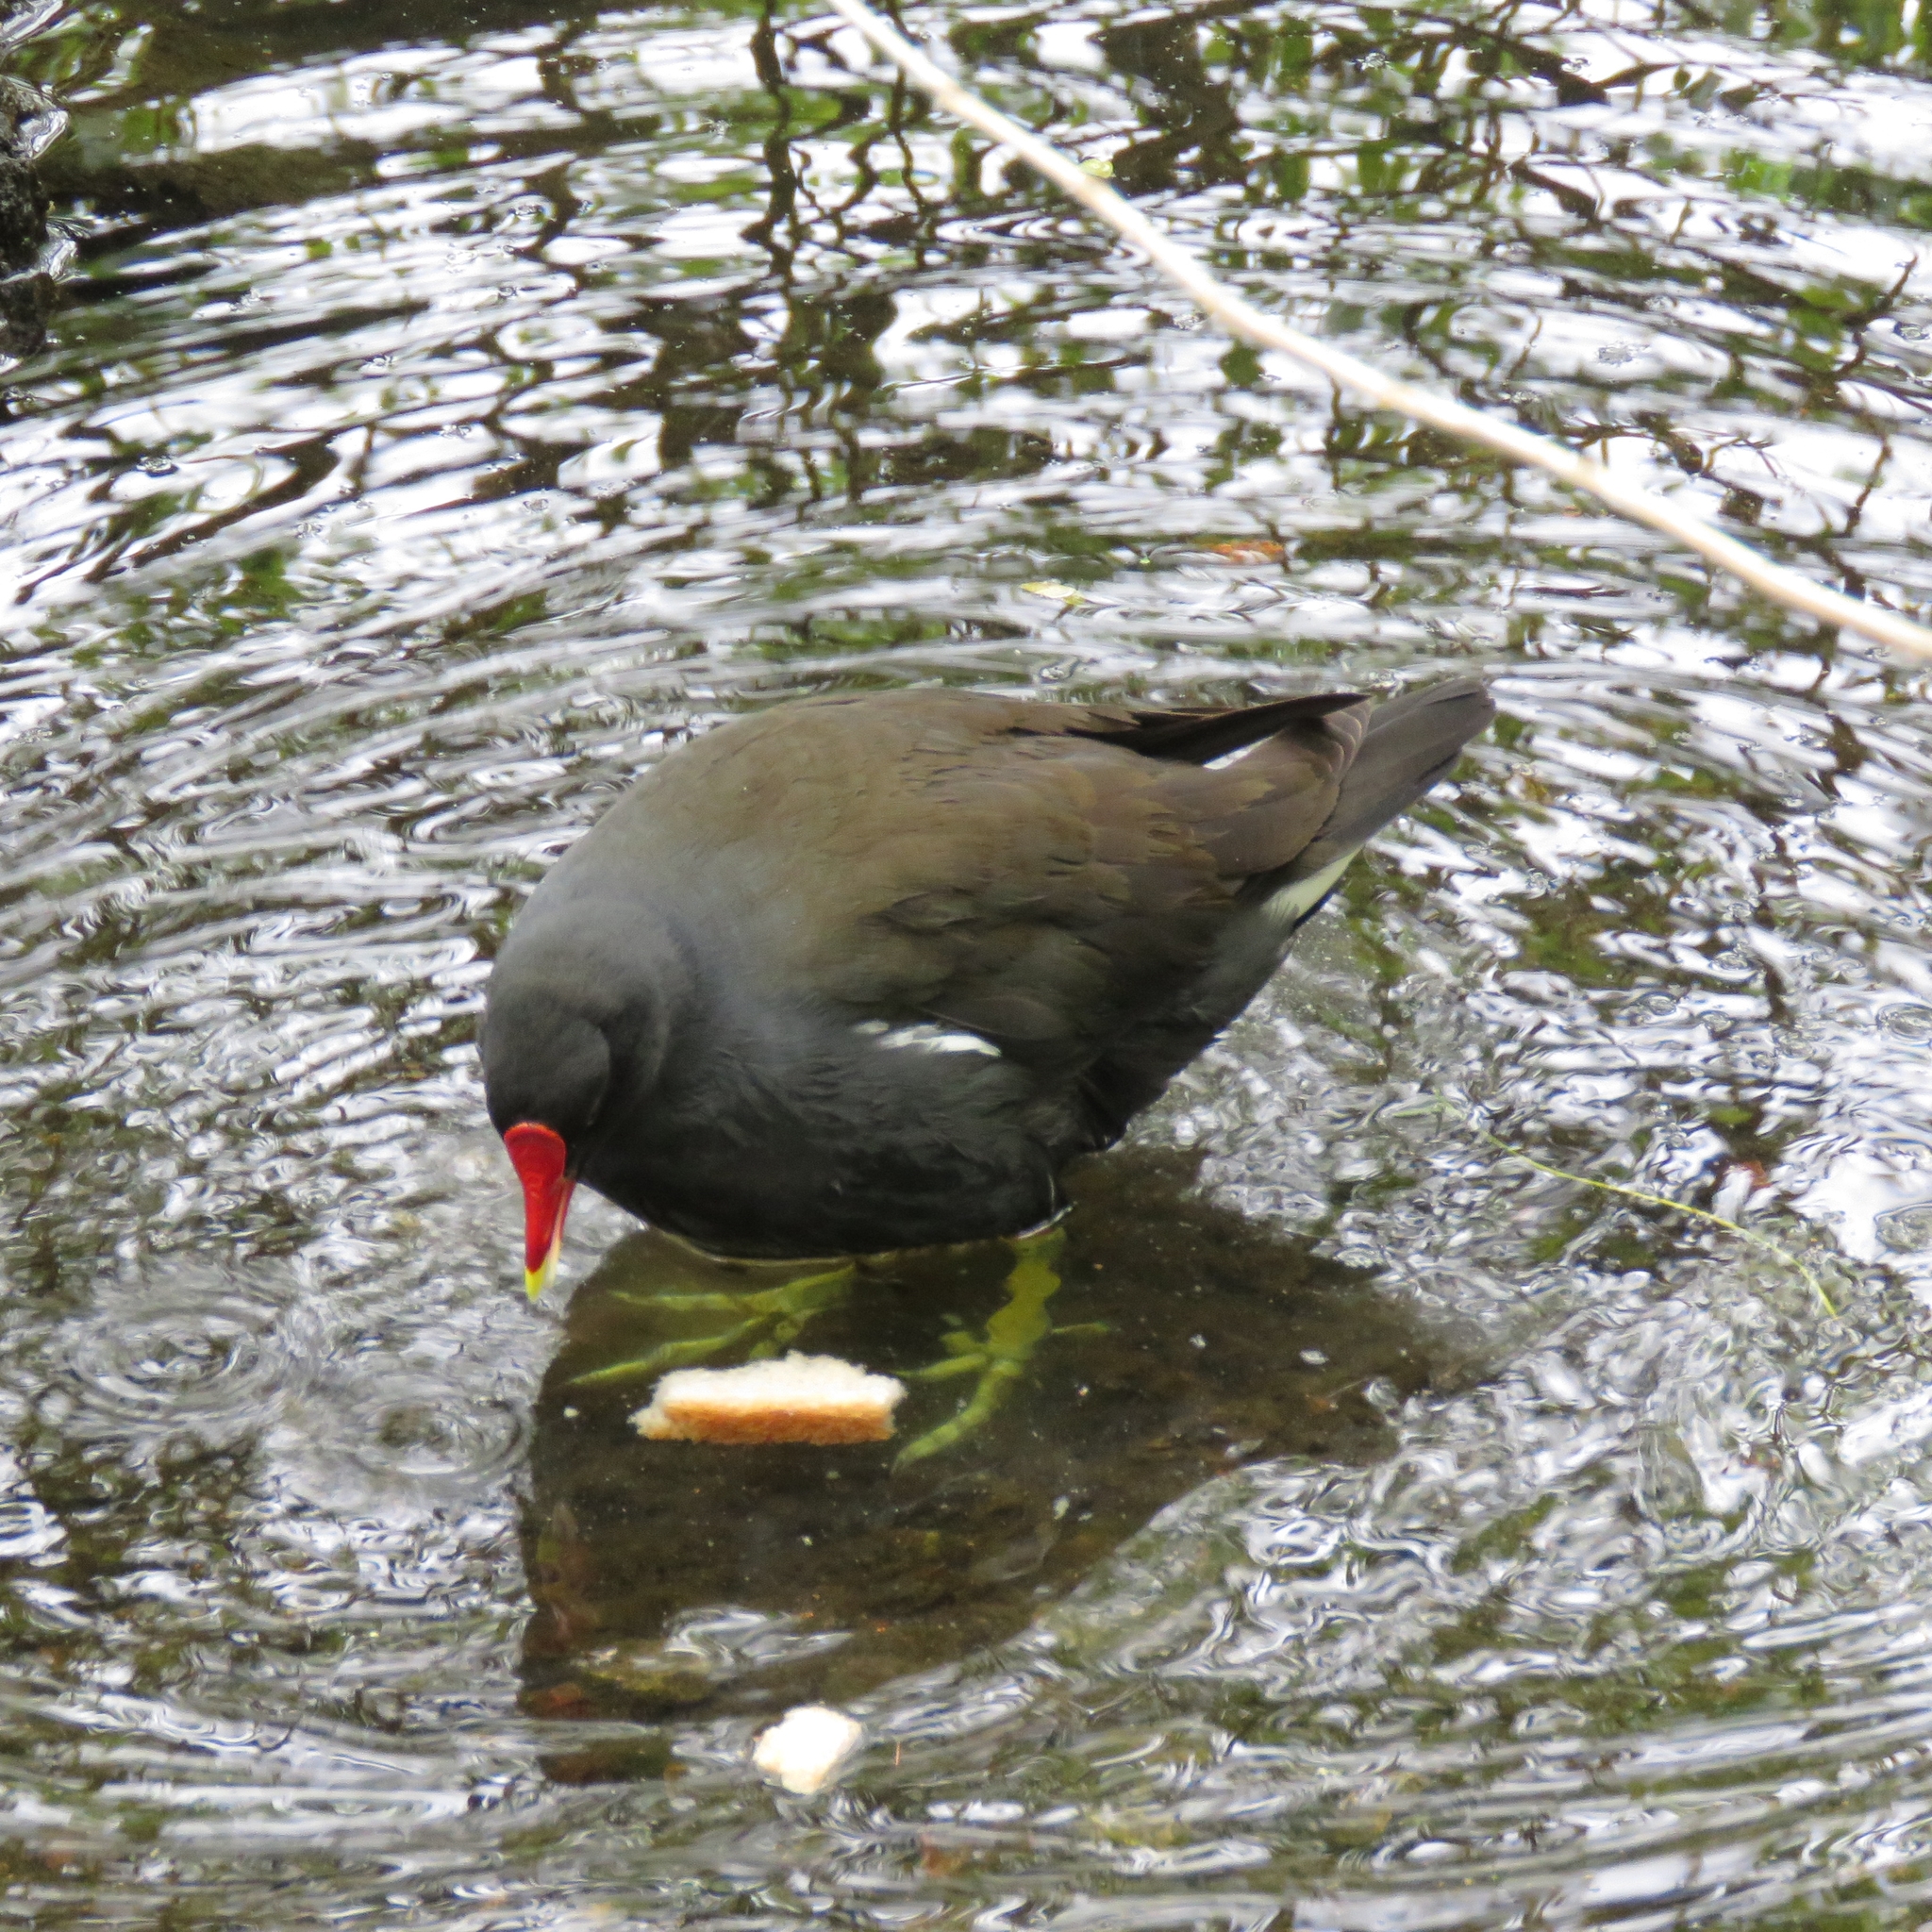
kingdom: Animalia
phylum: Chordata
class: Aves
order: Gruiformes
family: Rallidae
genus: Gallinula
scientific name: Gallinula chloropus
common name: Common moorhen
